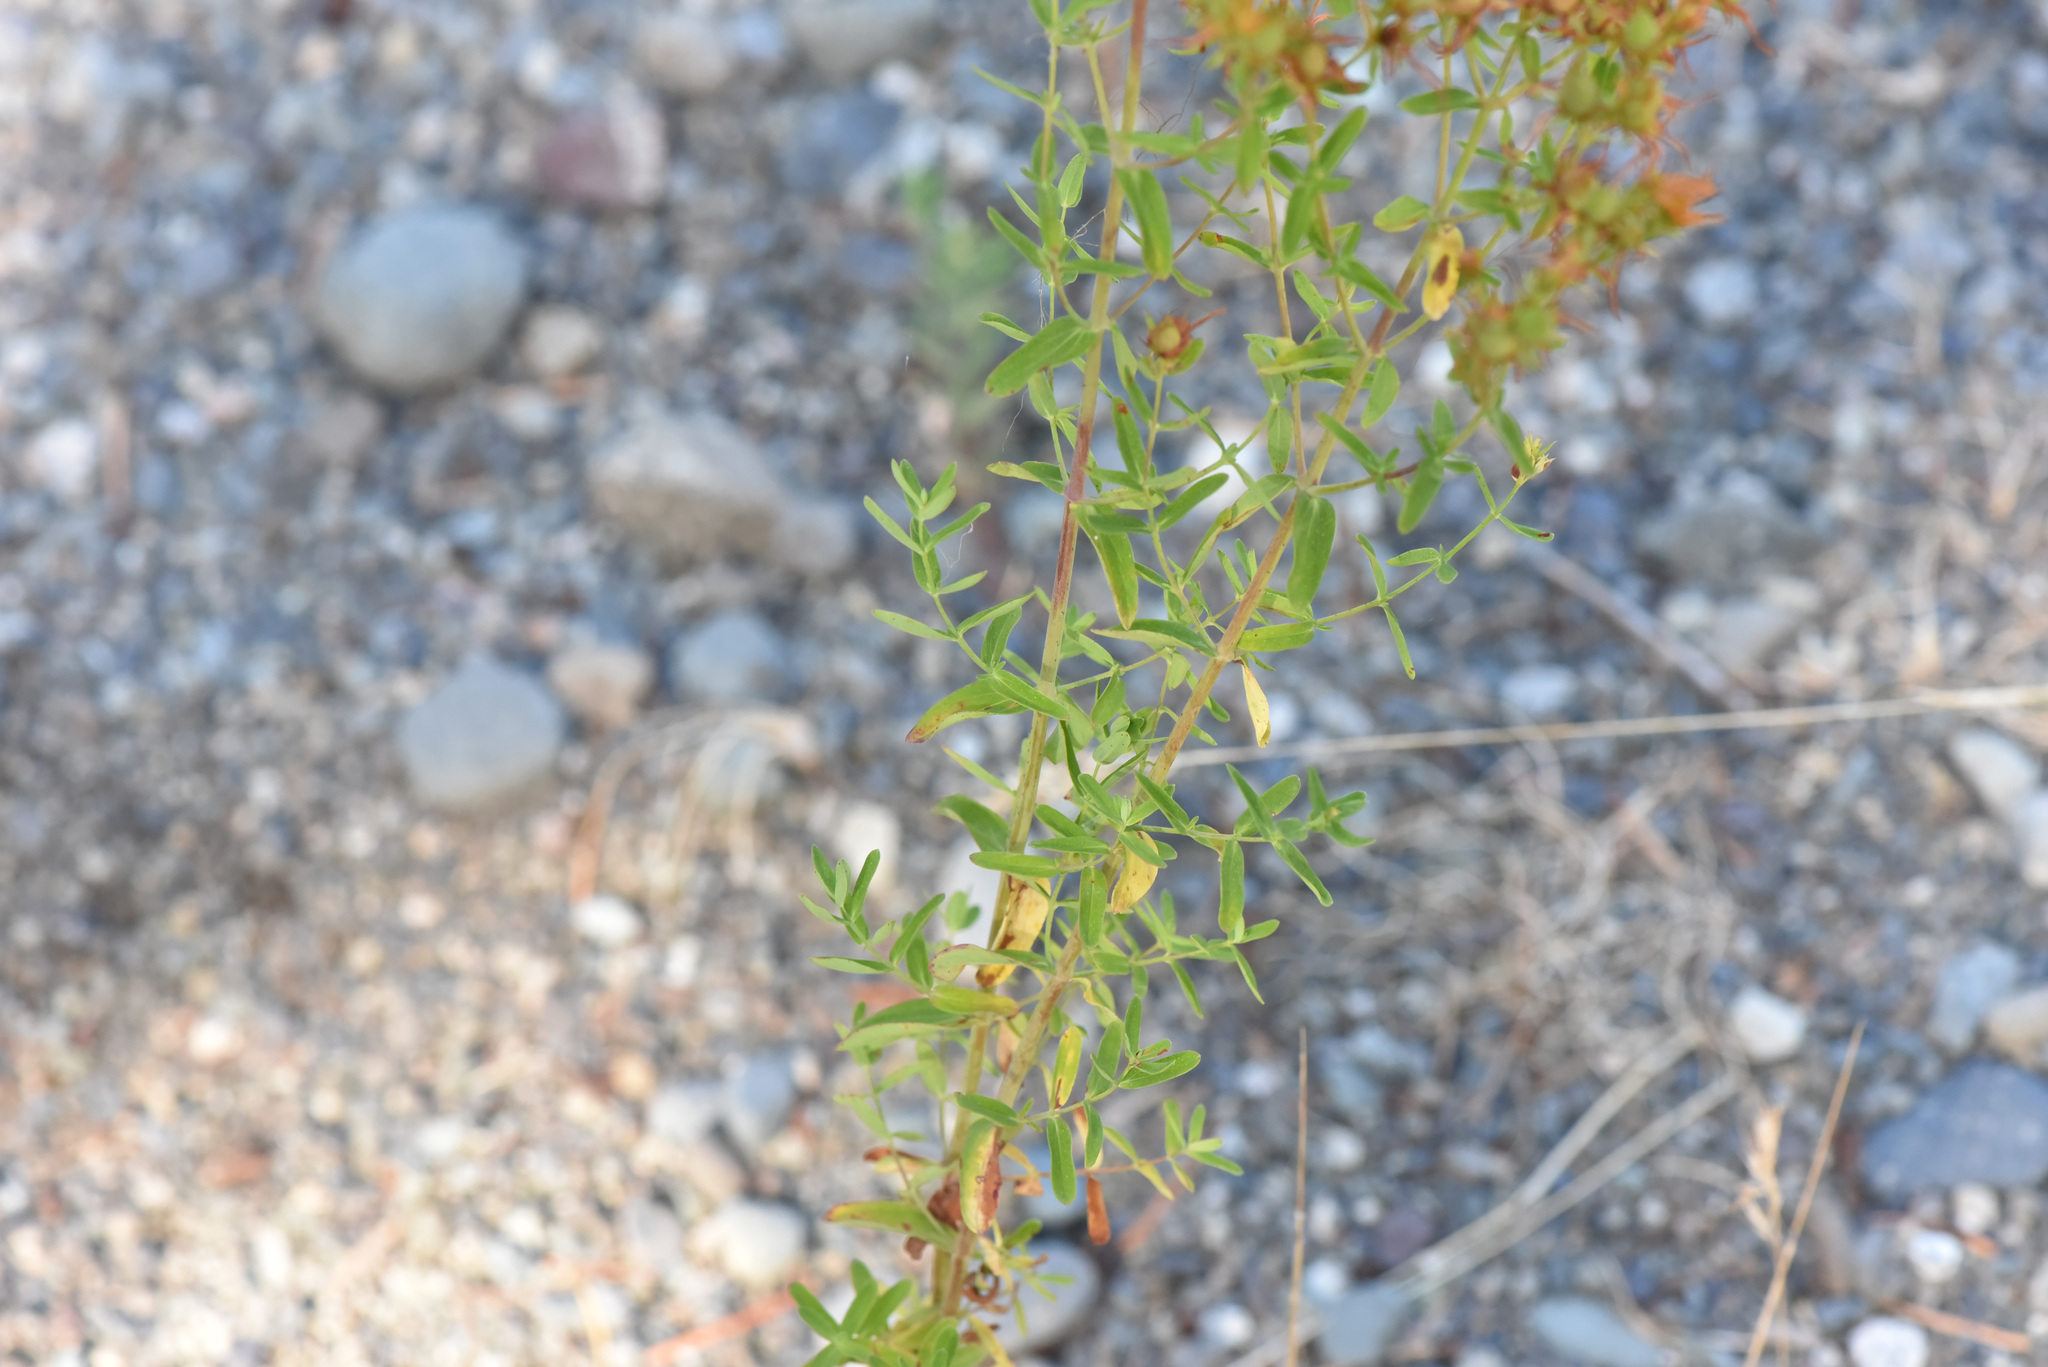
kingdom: Plantae
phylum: Tracheophyta
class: Magnoliopsida
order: Malpighiales
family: Hypericaceae
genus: Hypericum
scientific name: Hypericum perforatum
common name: Common st. johnswort
